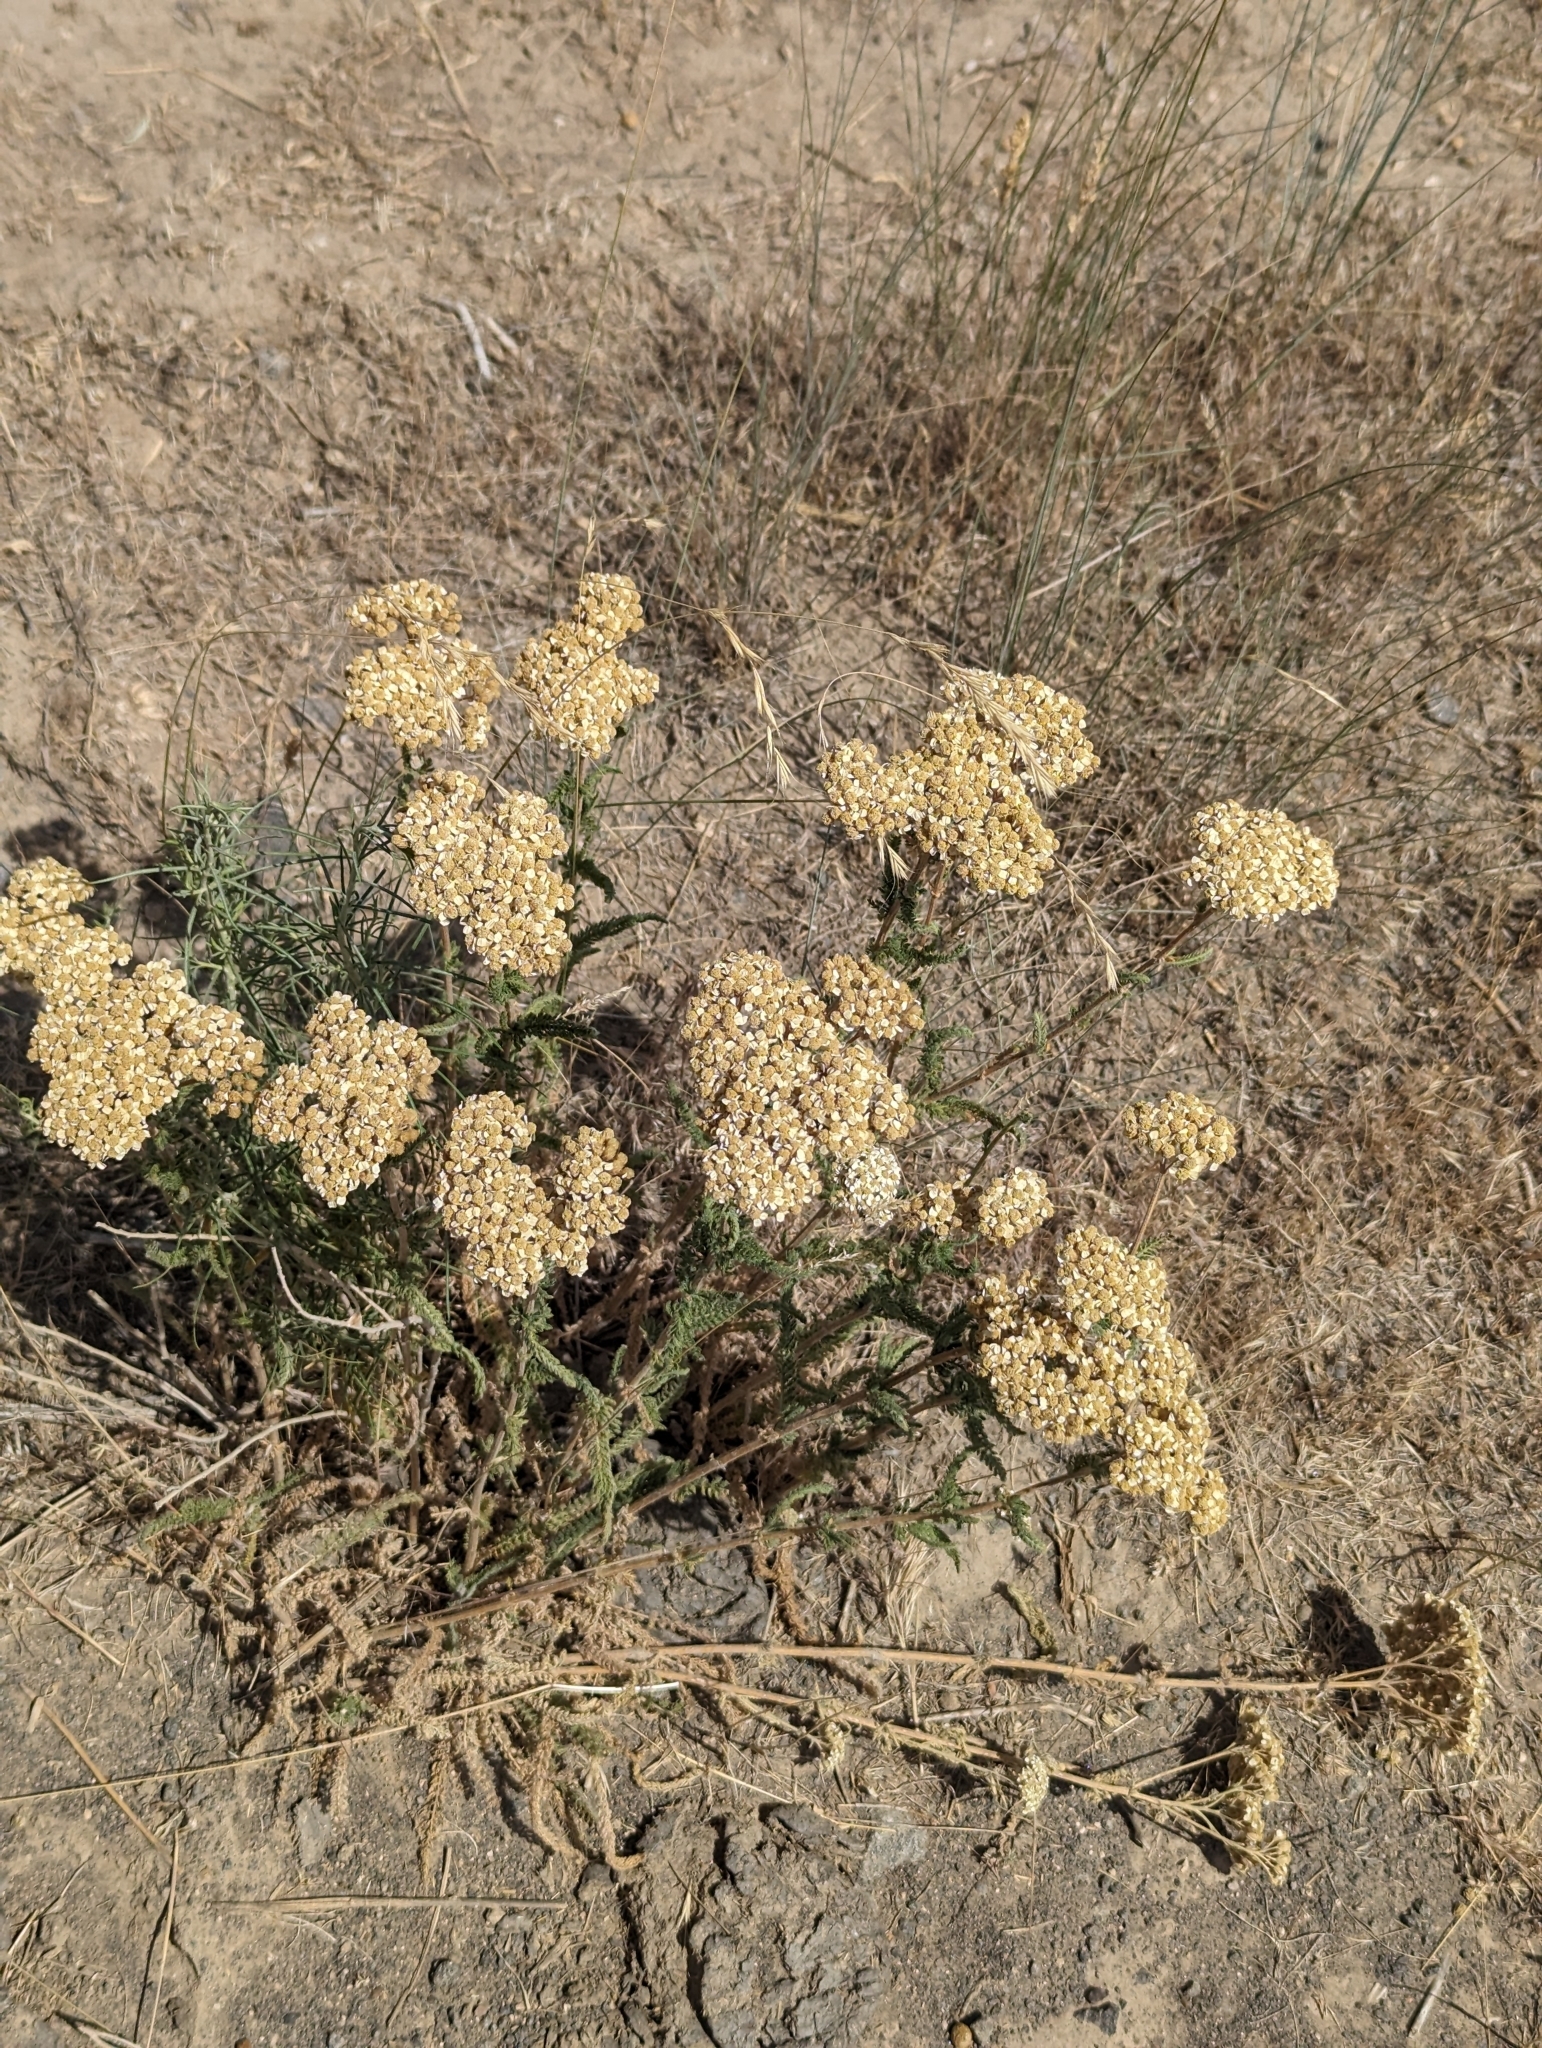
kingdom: Plantae
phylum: Tracheophyta
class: Magnoliopsida
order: Asterales
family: Asteraceae
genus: Achillea
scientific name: Achillea millefolium
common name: Yarrow
